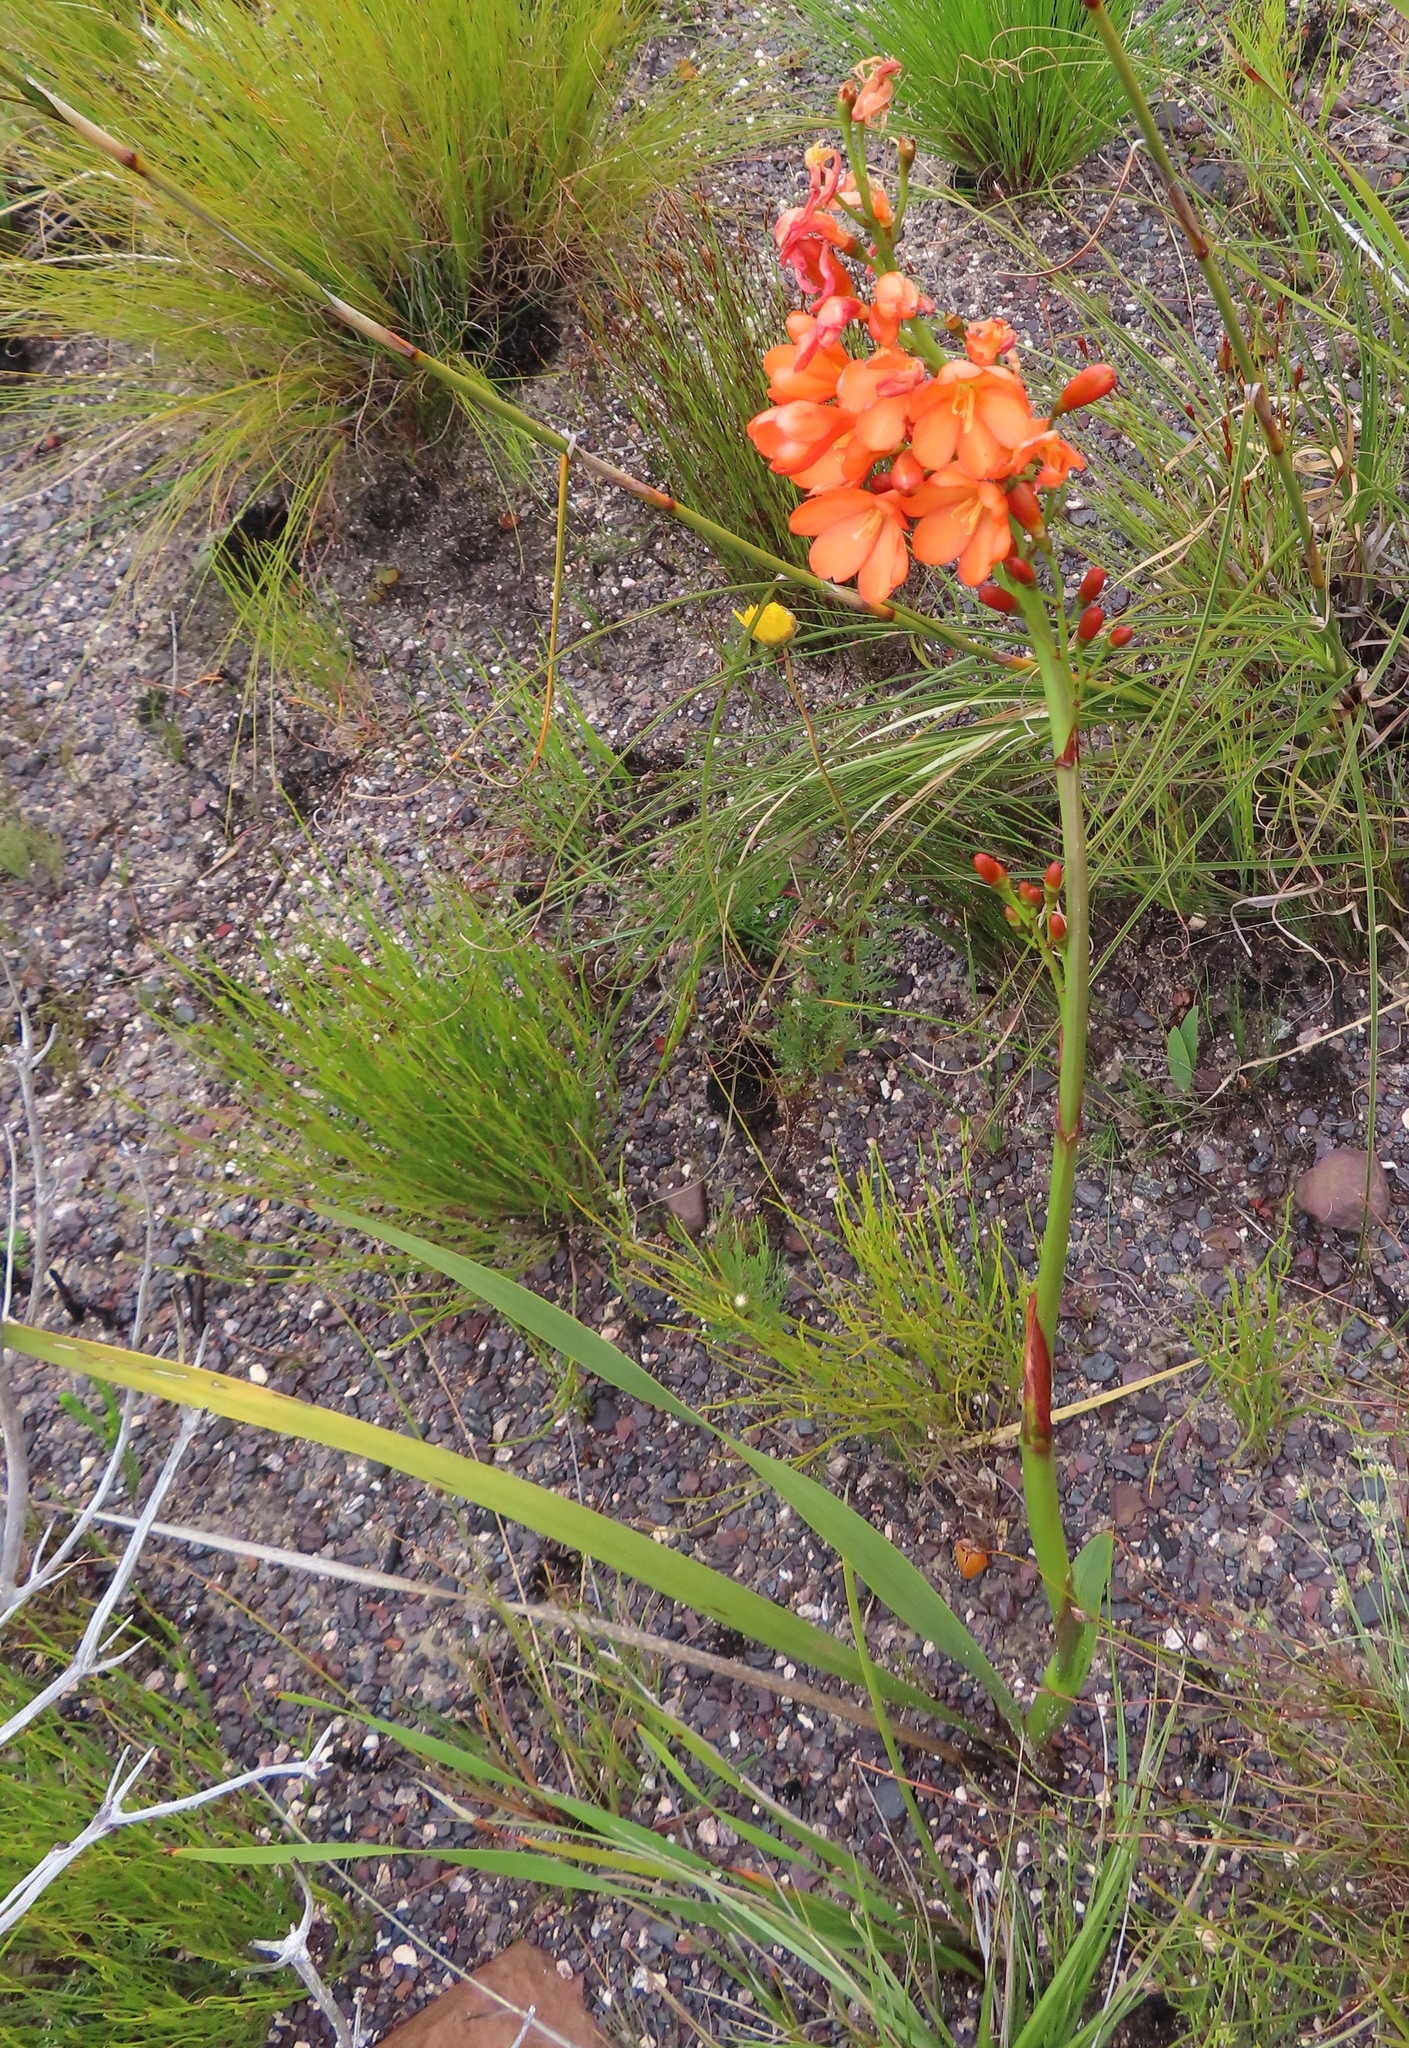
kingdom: Plantae
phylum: Tracheophyta
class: Liliopsida
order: Asparagales
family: Iridaceae
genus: Pillansia
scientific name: Pillansia templemannii
